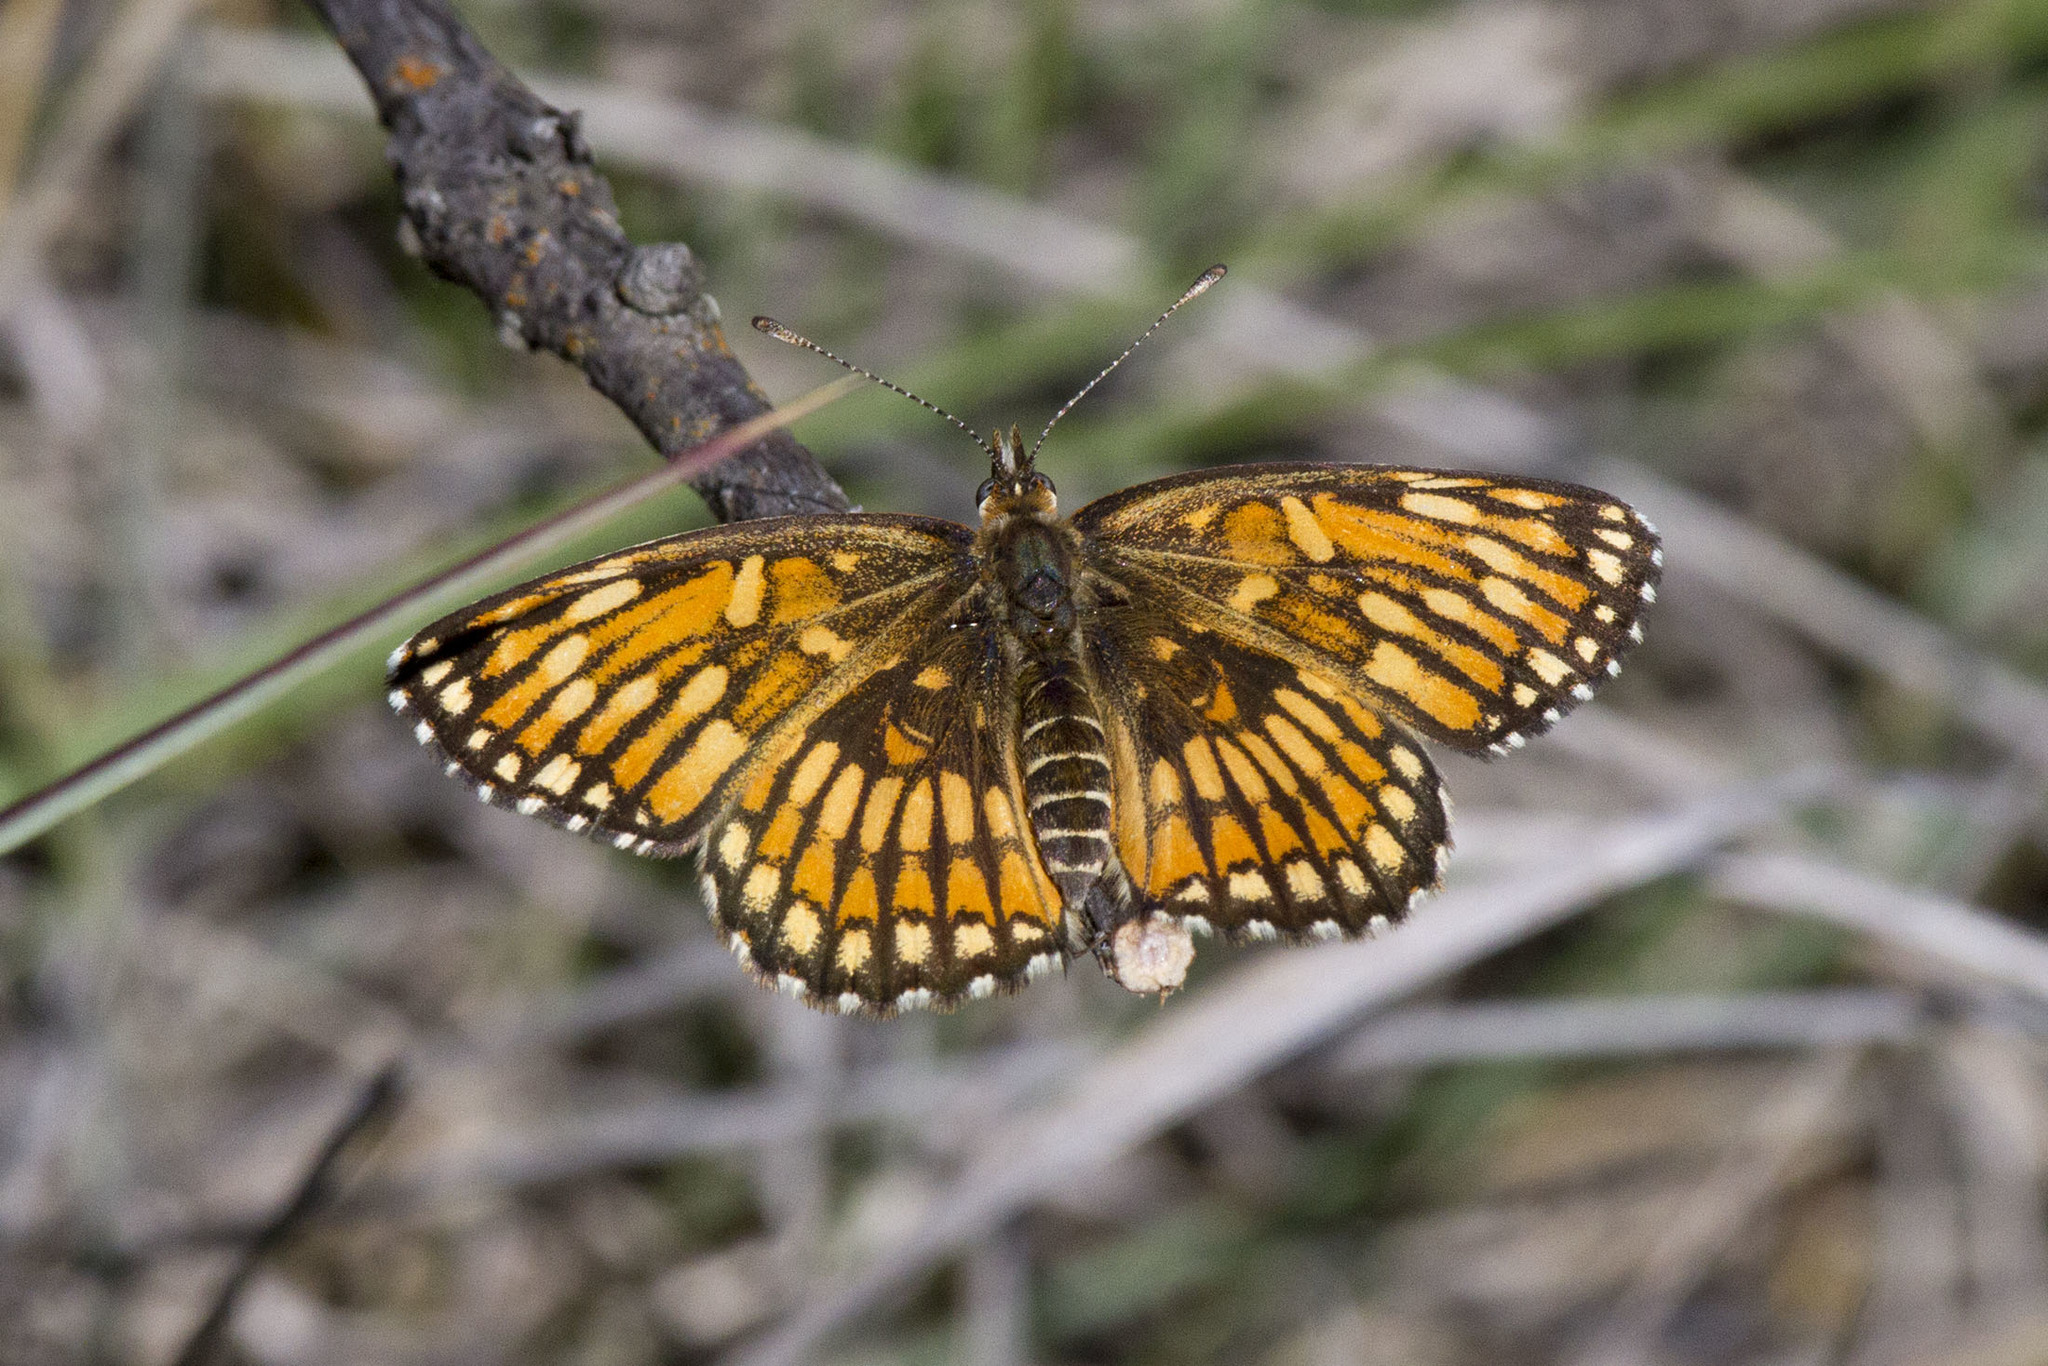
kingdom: Animalia
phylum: Arthropoda
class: Insecta
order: Lepidoptera
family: Nymphalidae
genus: Thessalia
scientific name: Thessalia theona
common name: Nymphalid moth
